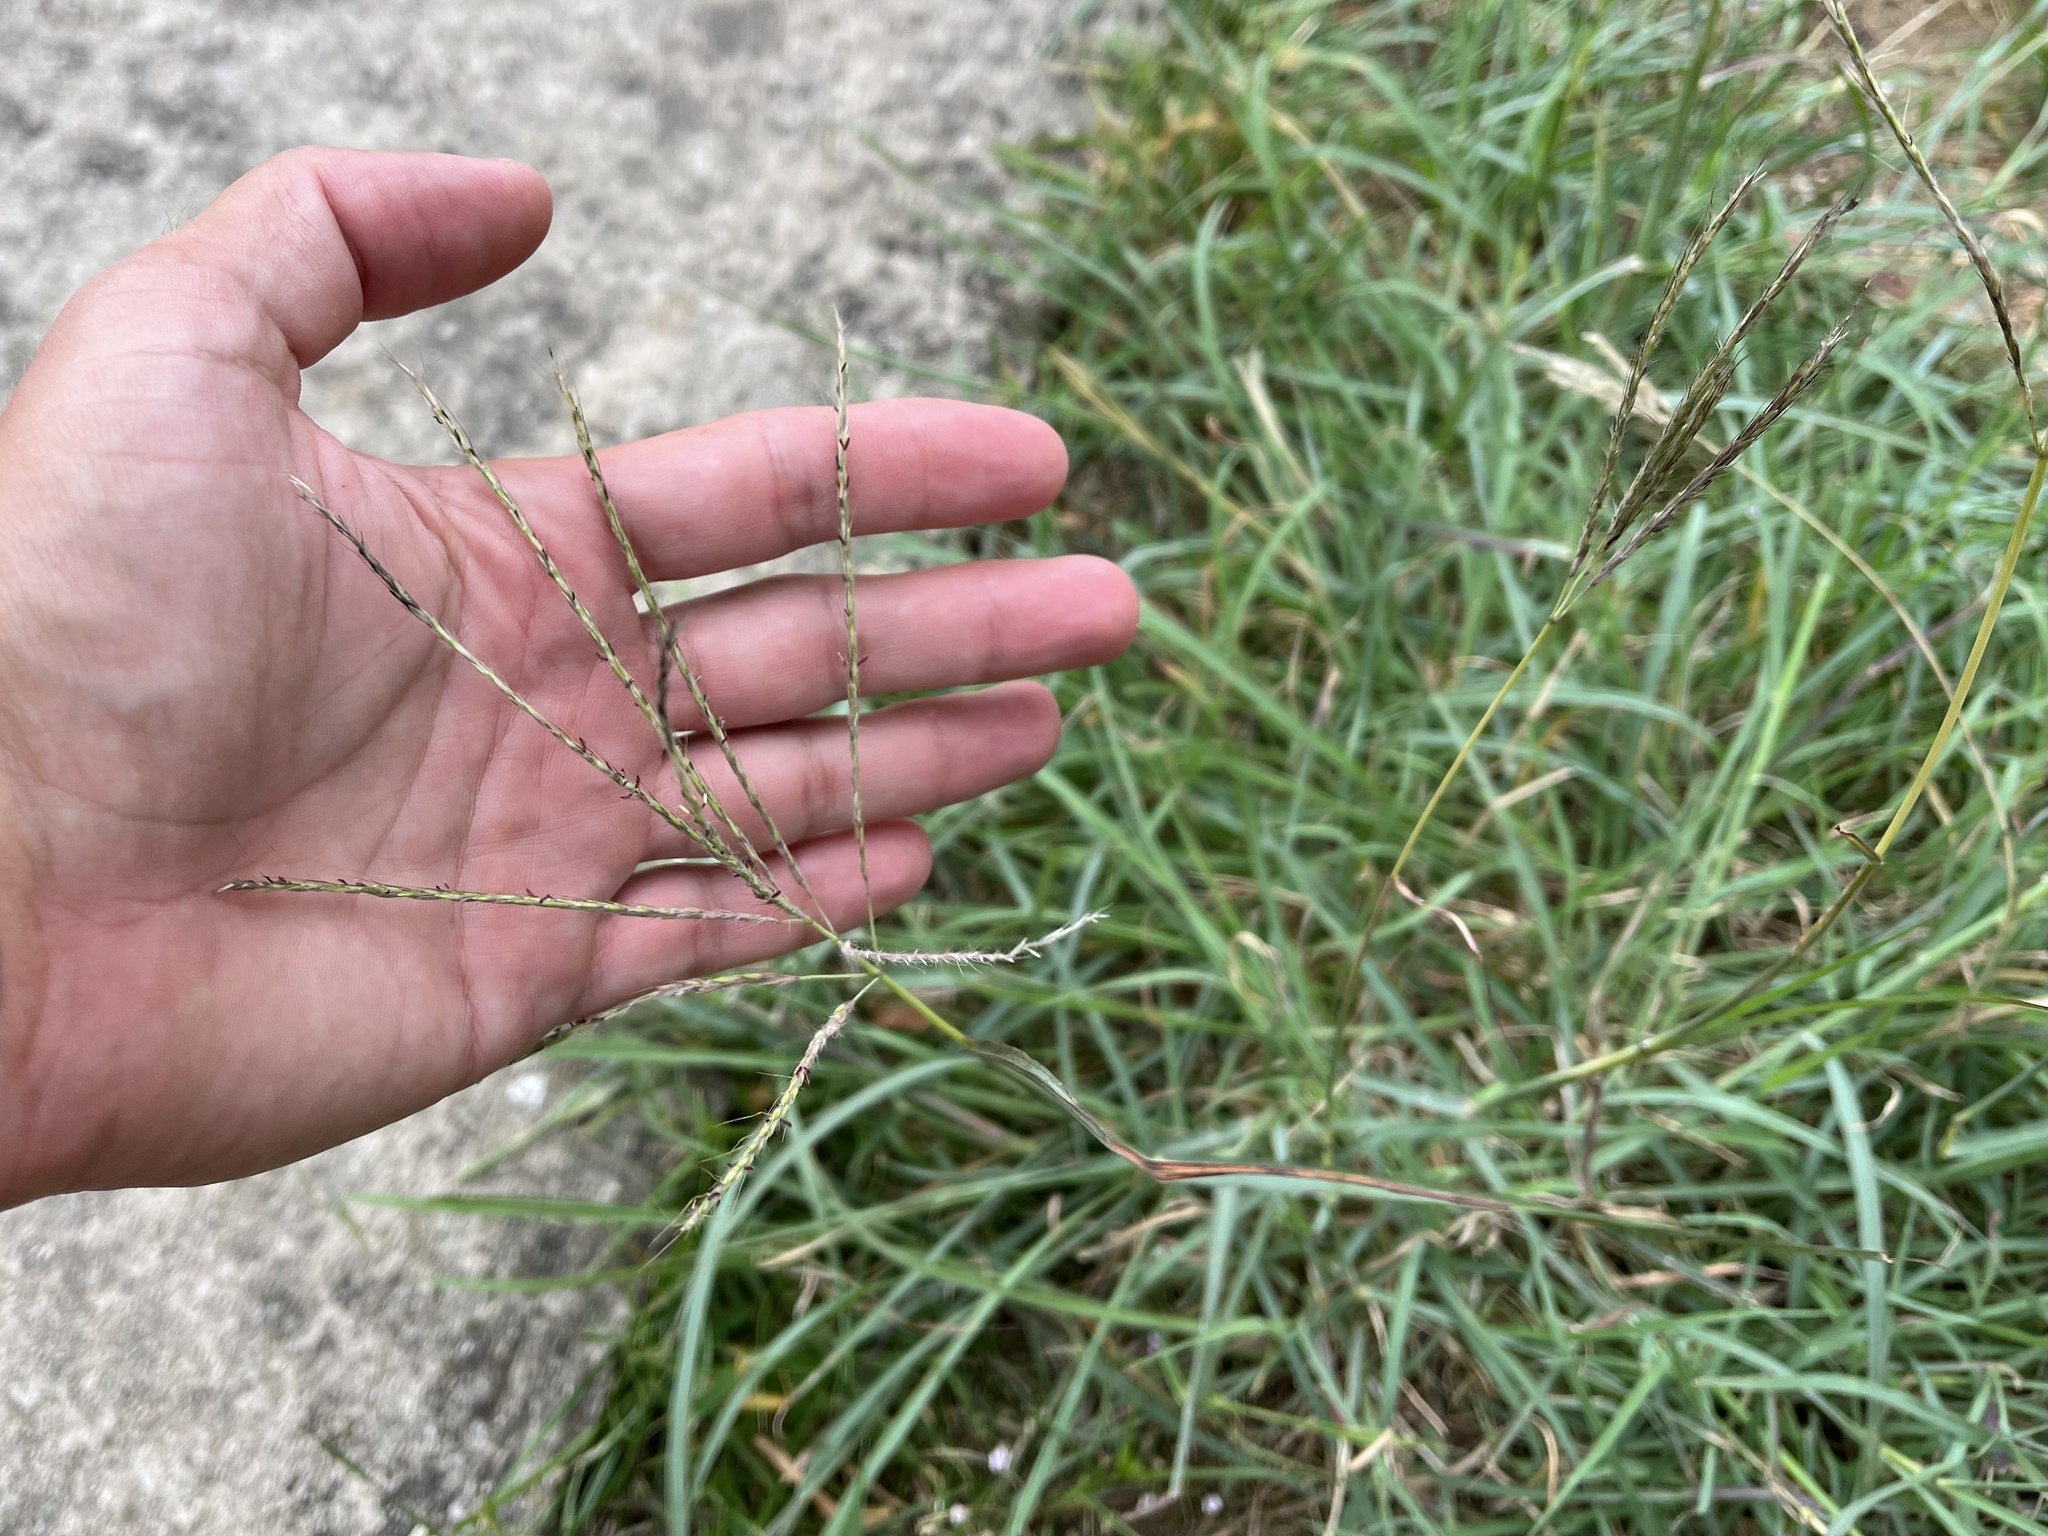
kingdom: Plantae
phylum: Tracheophyta
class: Liliopsida
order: Poales
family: Poaceae
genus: Bothriochloa
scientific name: Bothriochloa ischaemum
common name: Yellow bluestem
